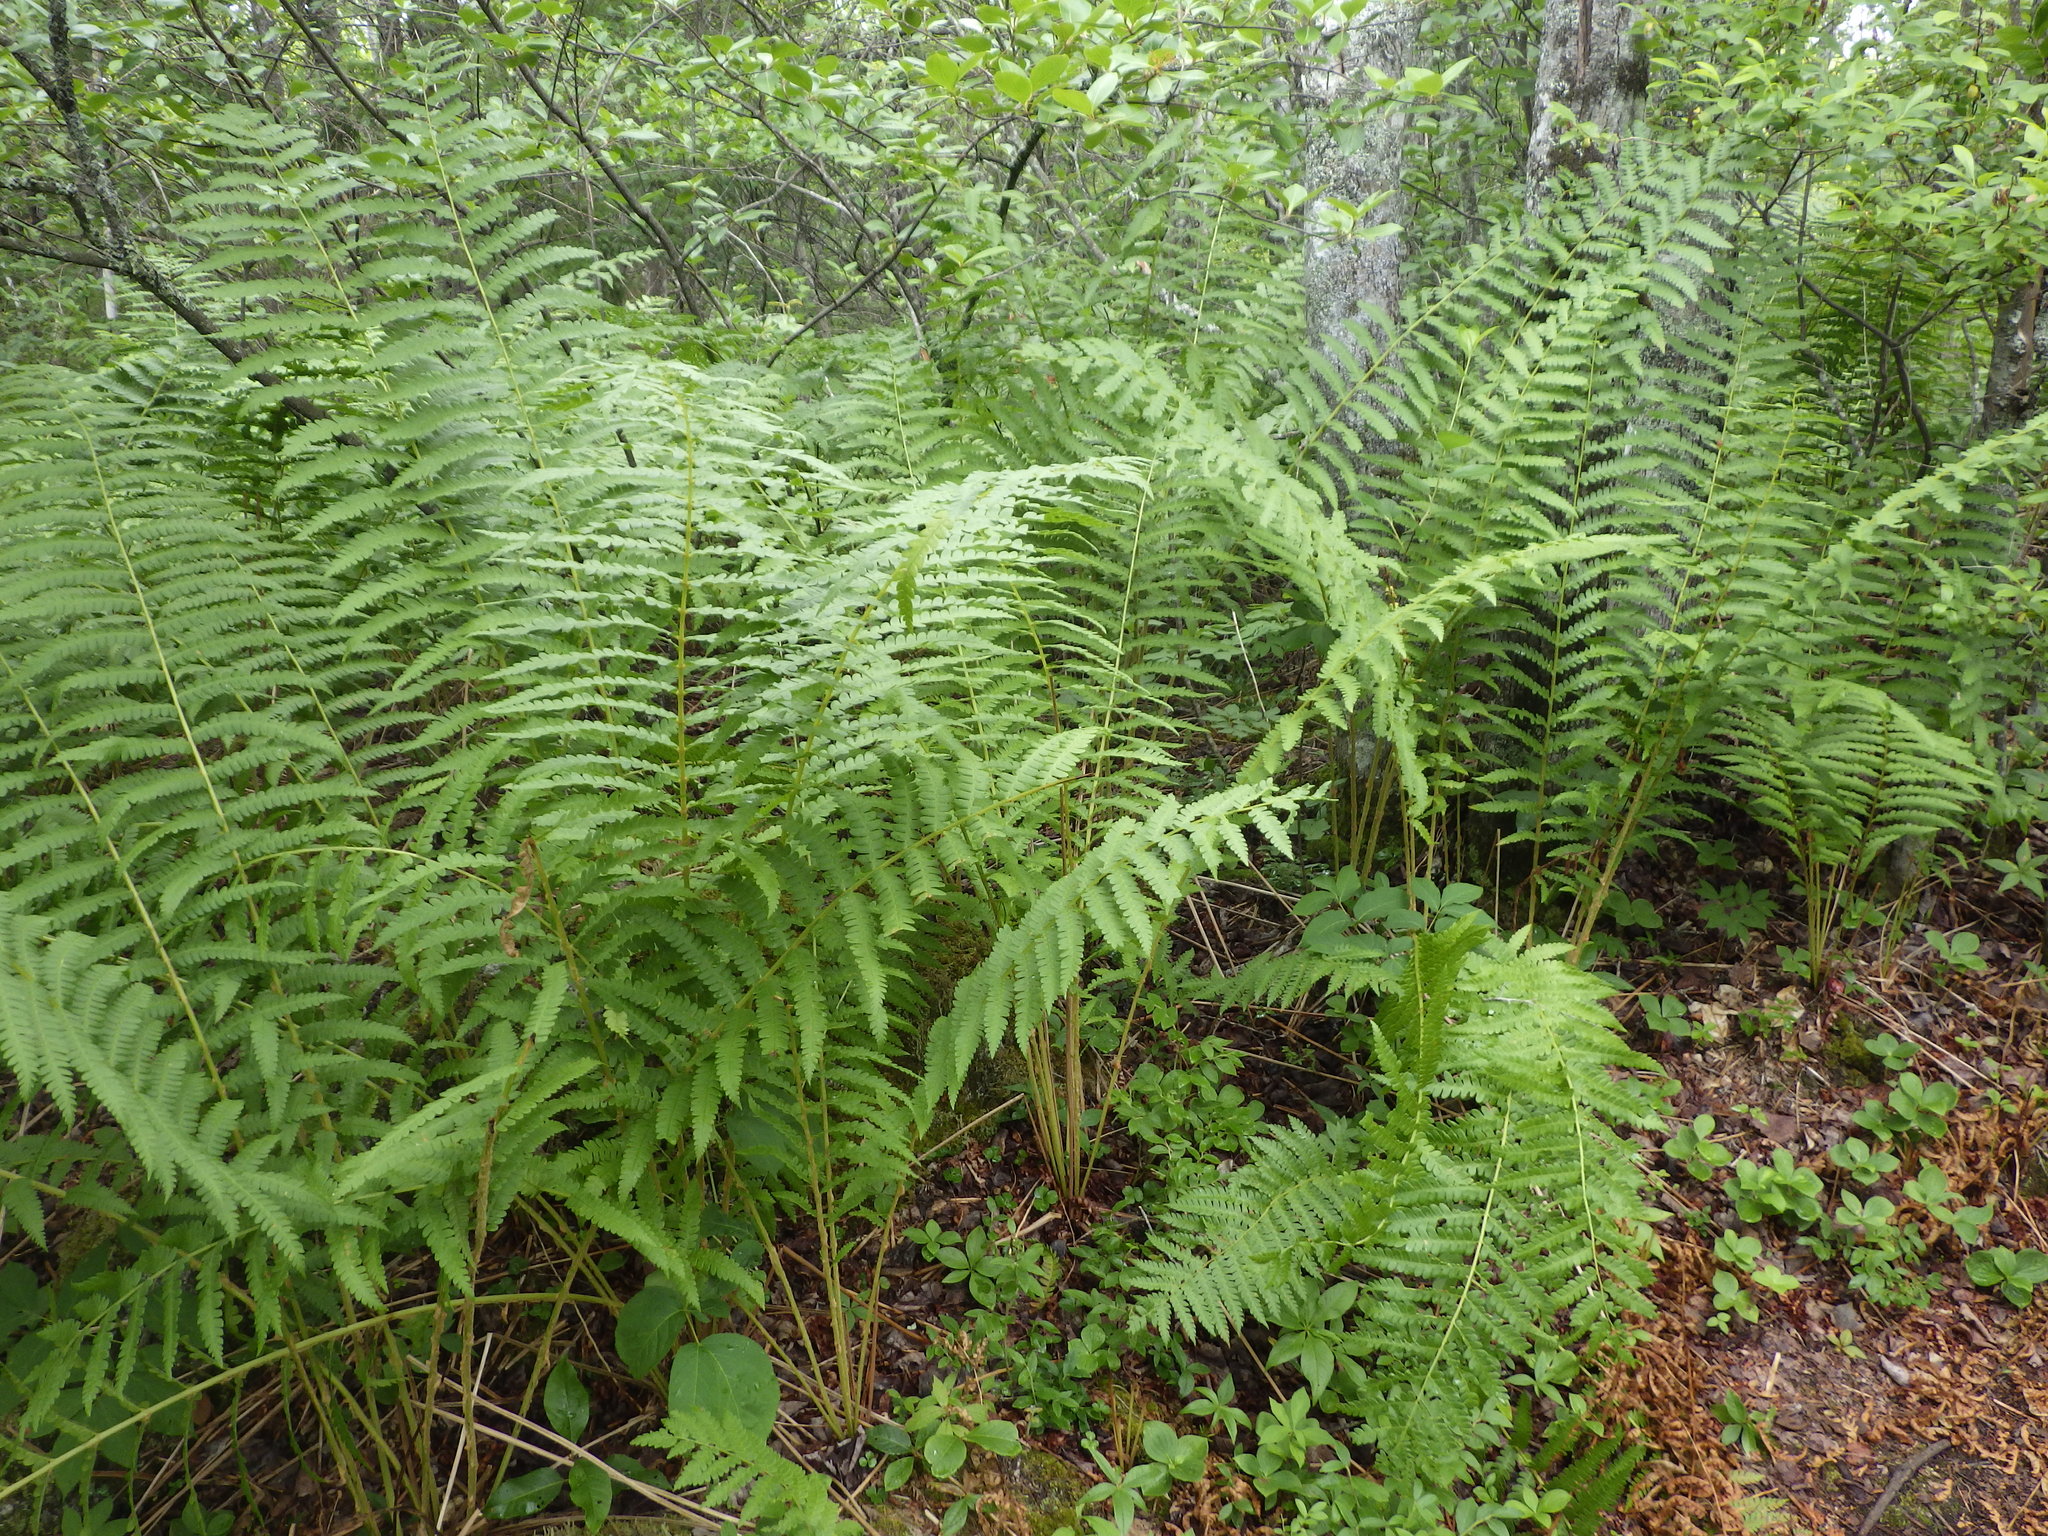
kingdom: Plantae
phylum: Tracheophyta
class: Polypodiopsida
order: Osmundales
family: Osmundaceae
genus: Osmundastrum
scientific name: Osmundastrum cinnamomeum
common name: Cinnamon fern
